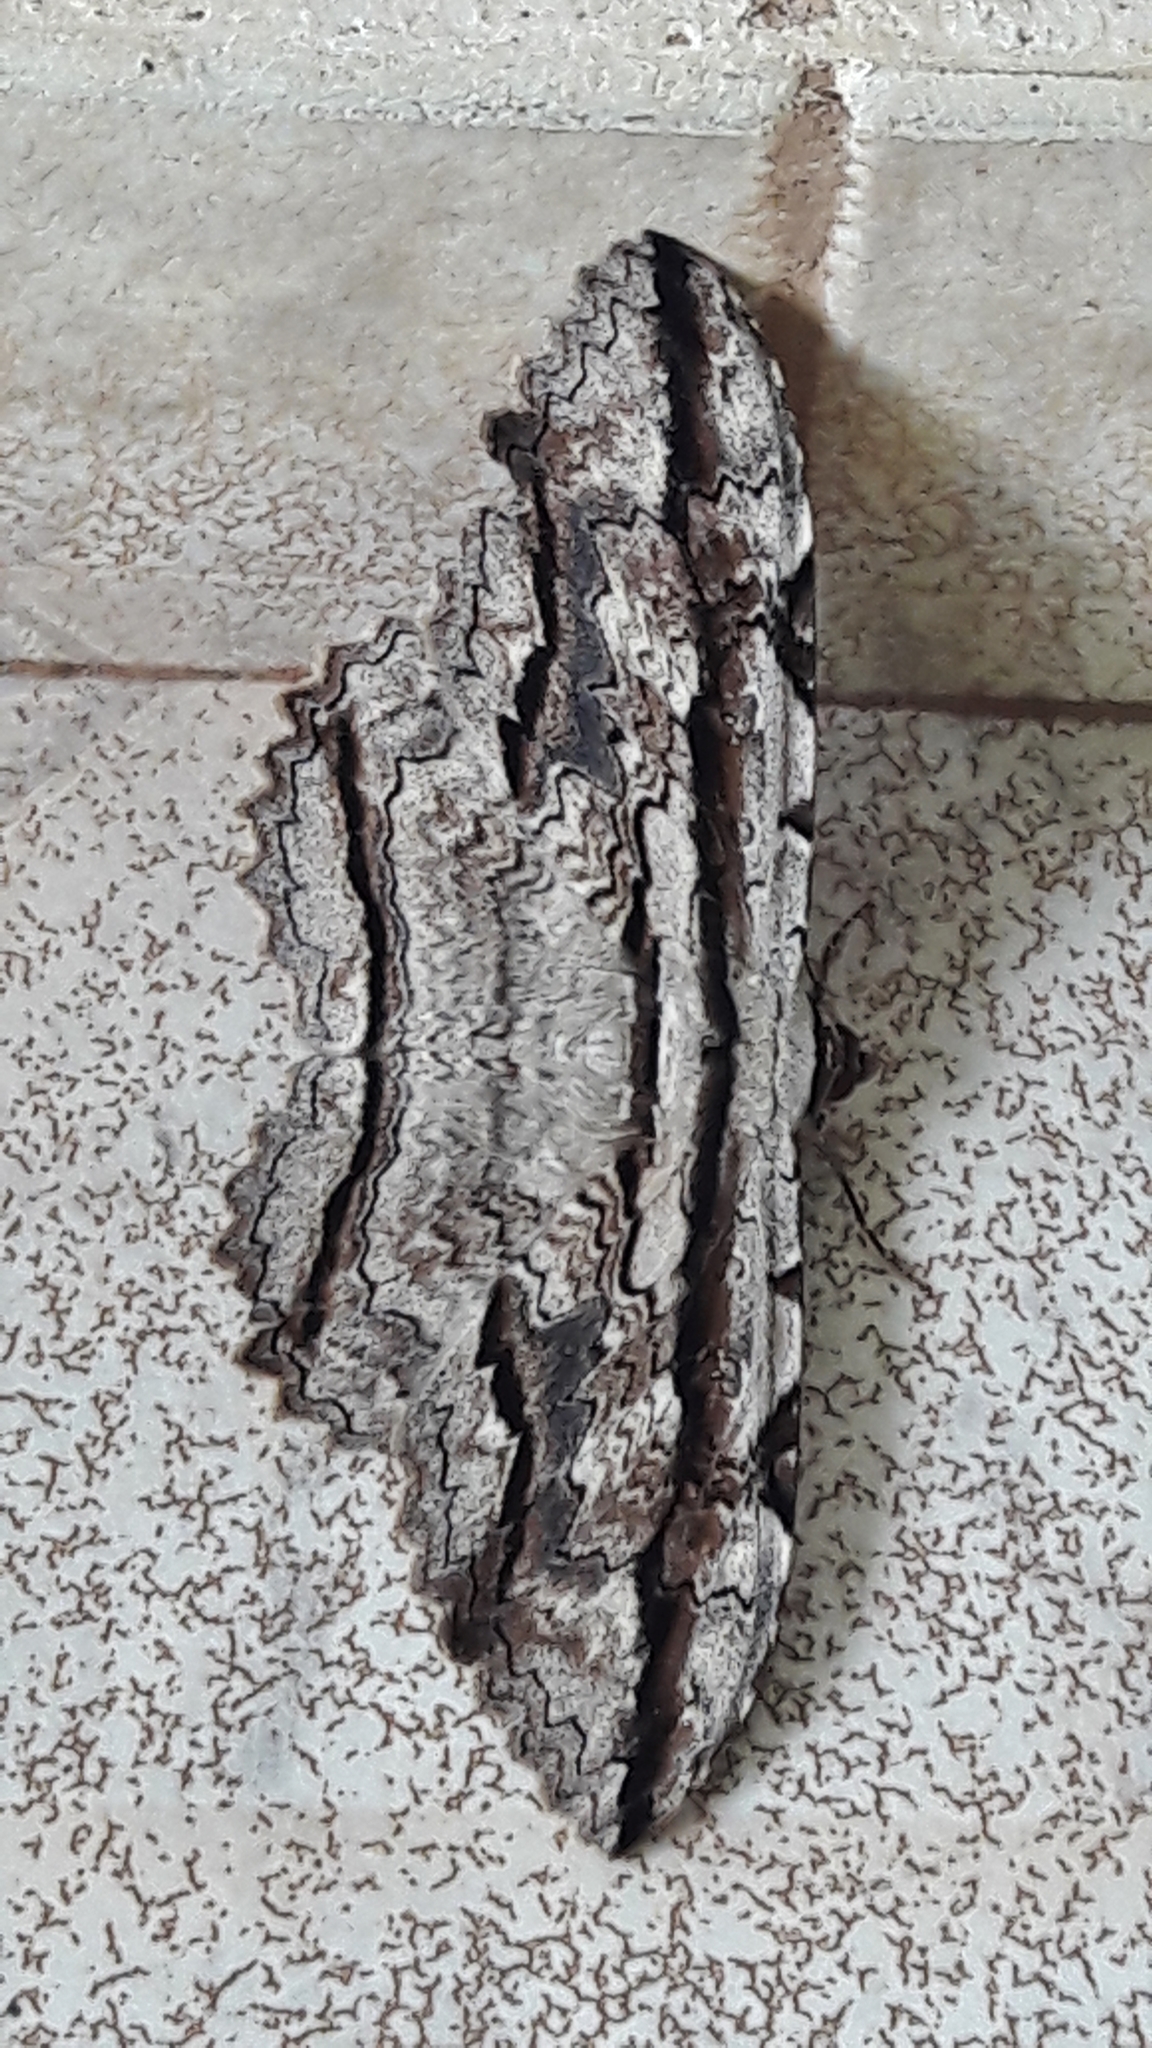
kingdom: Animalia
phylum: Arthropoda
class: Insecta
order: Lepidoptera
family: Erebidae
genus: Thysania
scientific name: Thysania zenobia
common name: Owl moth
